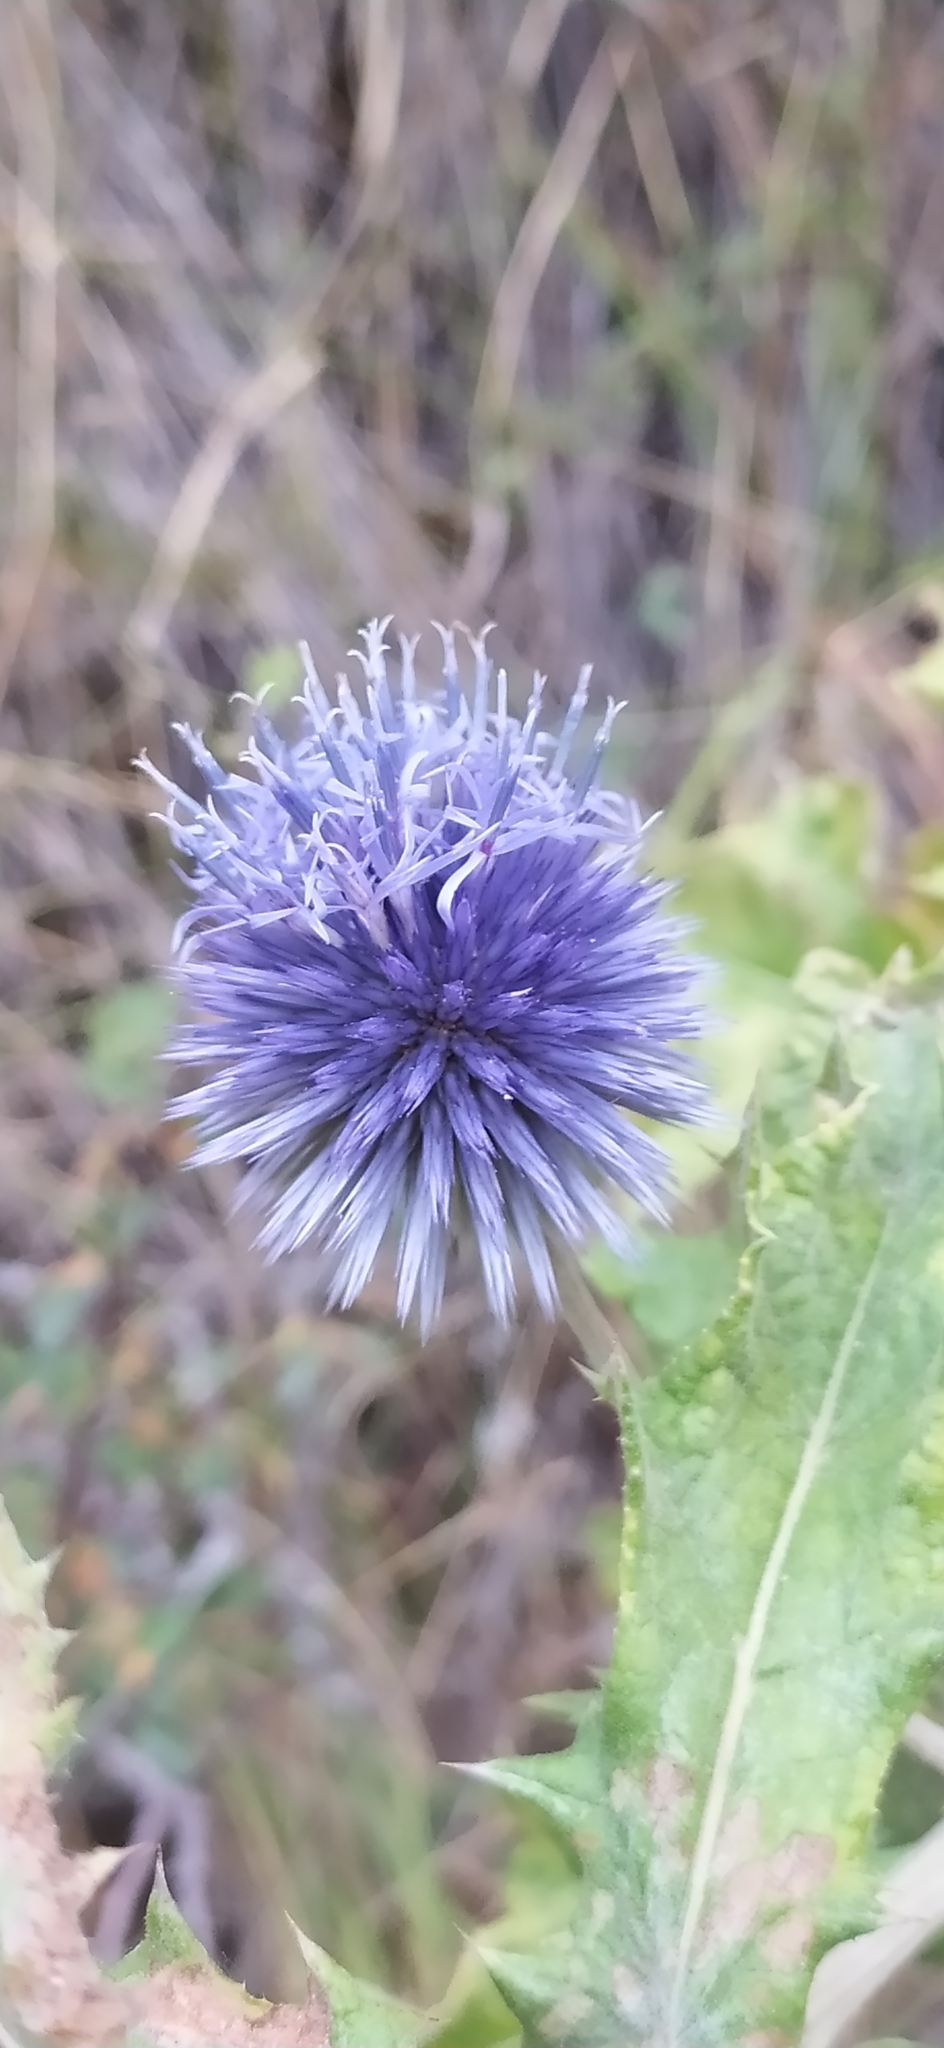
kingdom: Plantae
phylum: Tracheophyta
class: Magnoliopsida
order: Asterales
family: Asteraceae
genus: Echinops
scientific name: Echinops karatavicus
